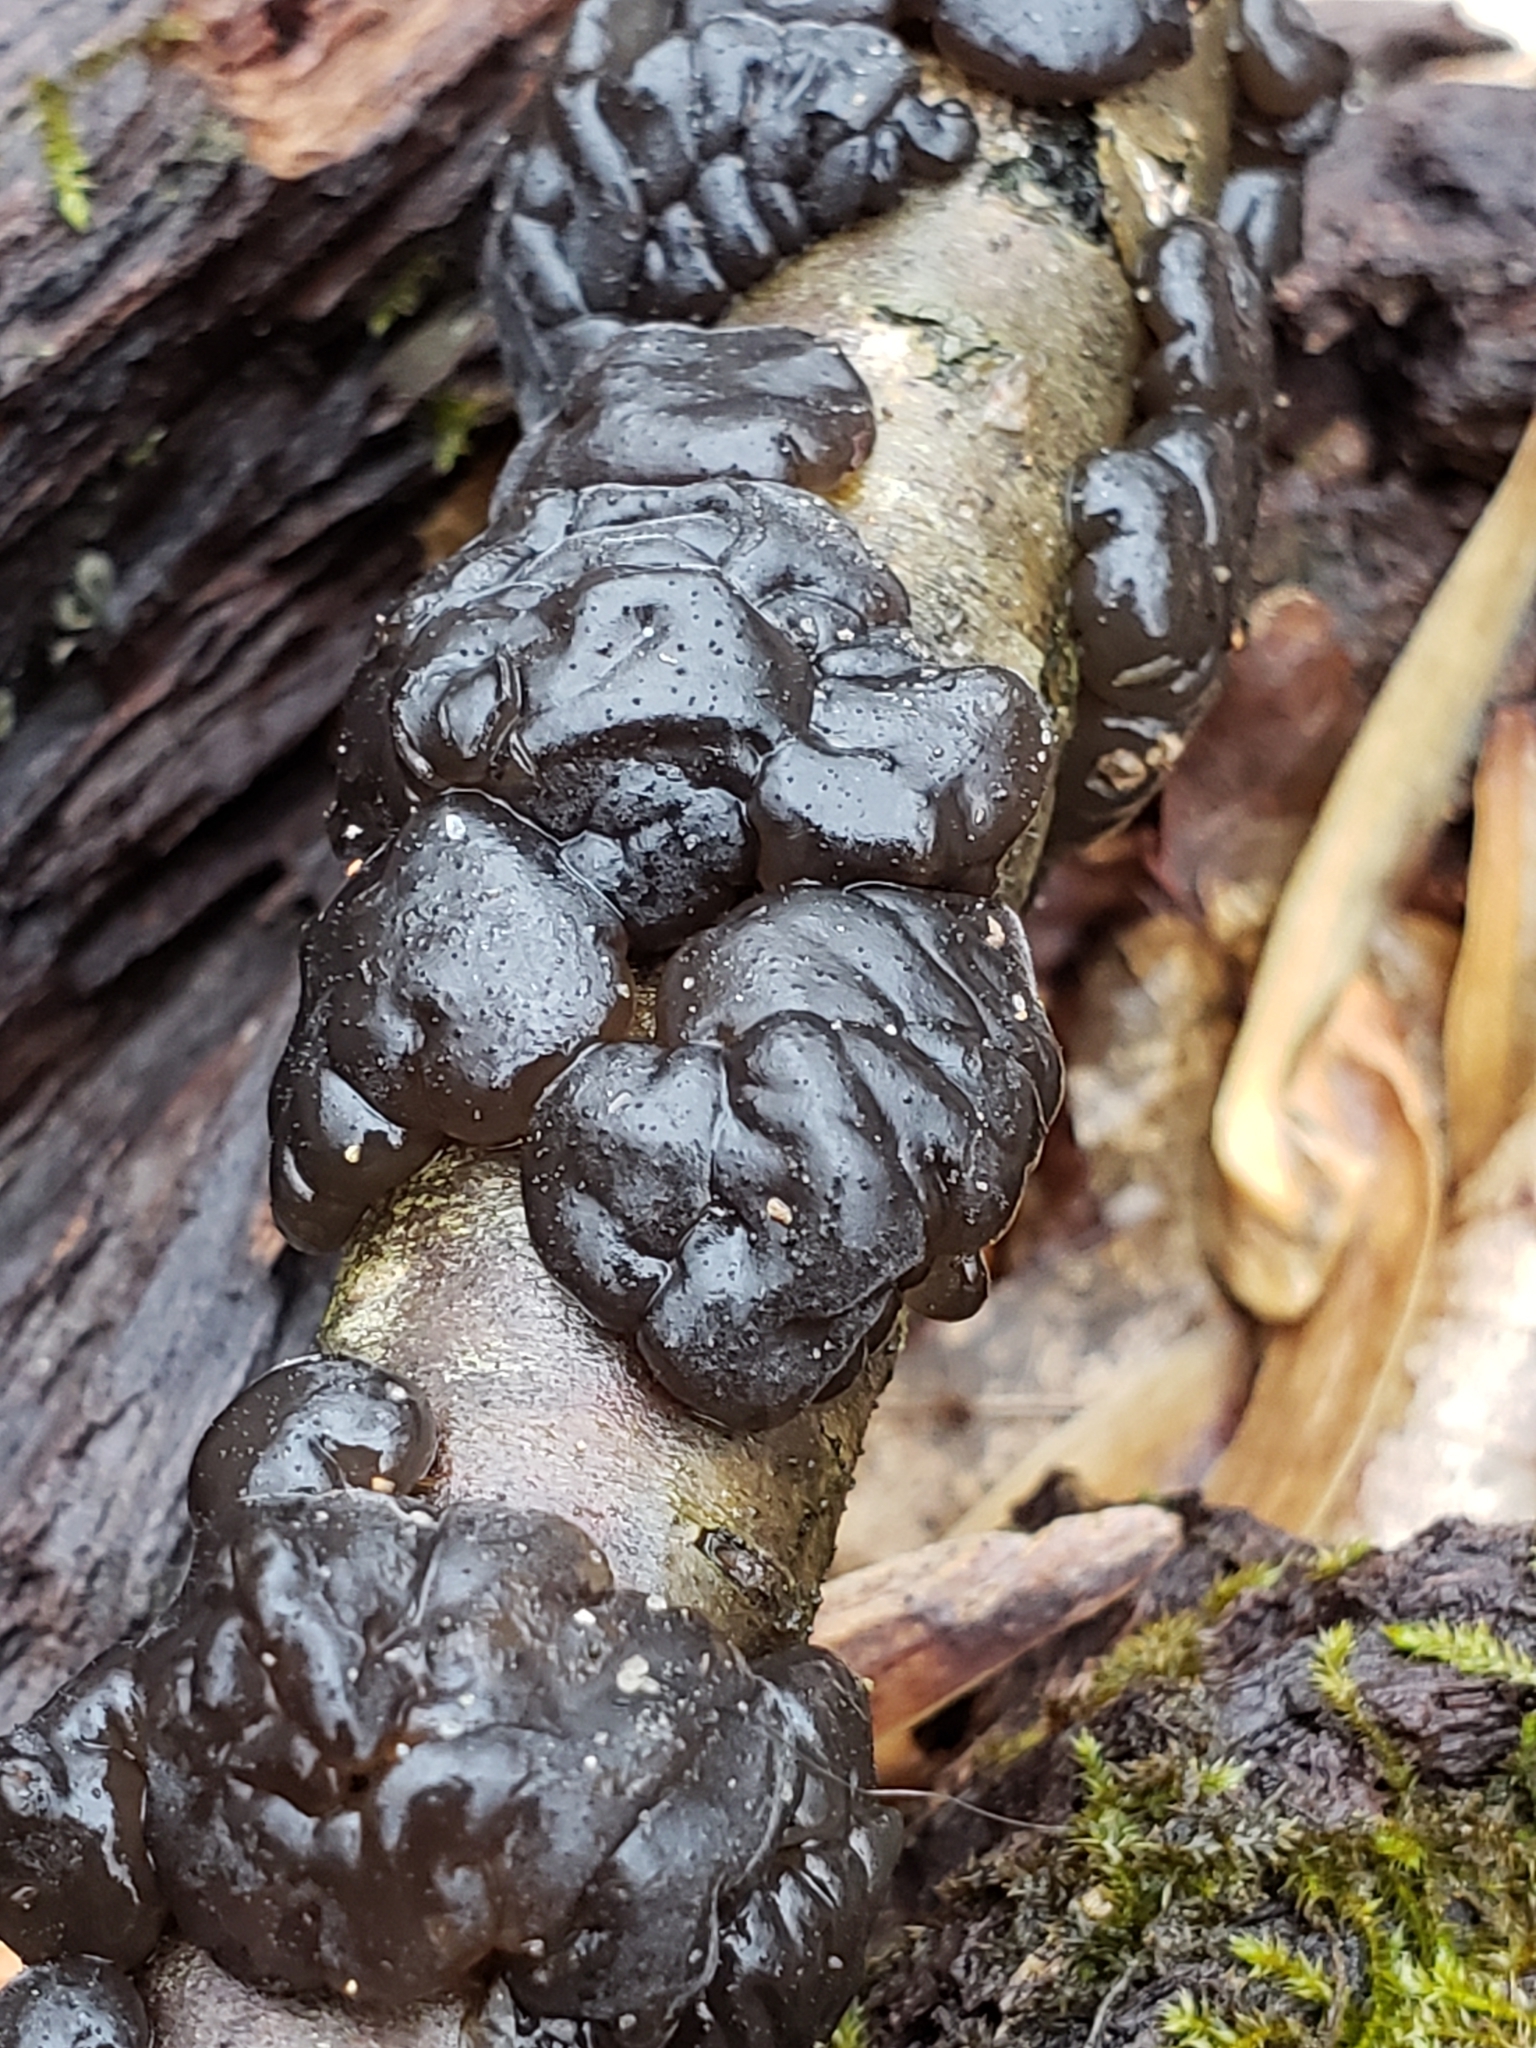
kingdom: Fungi
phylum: Basidiomycota
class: Agaricomycetes
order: Auriculariales
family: Auriculariaceae
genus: Exidia
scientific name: Exidia
